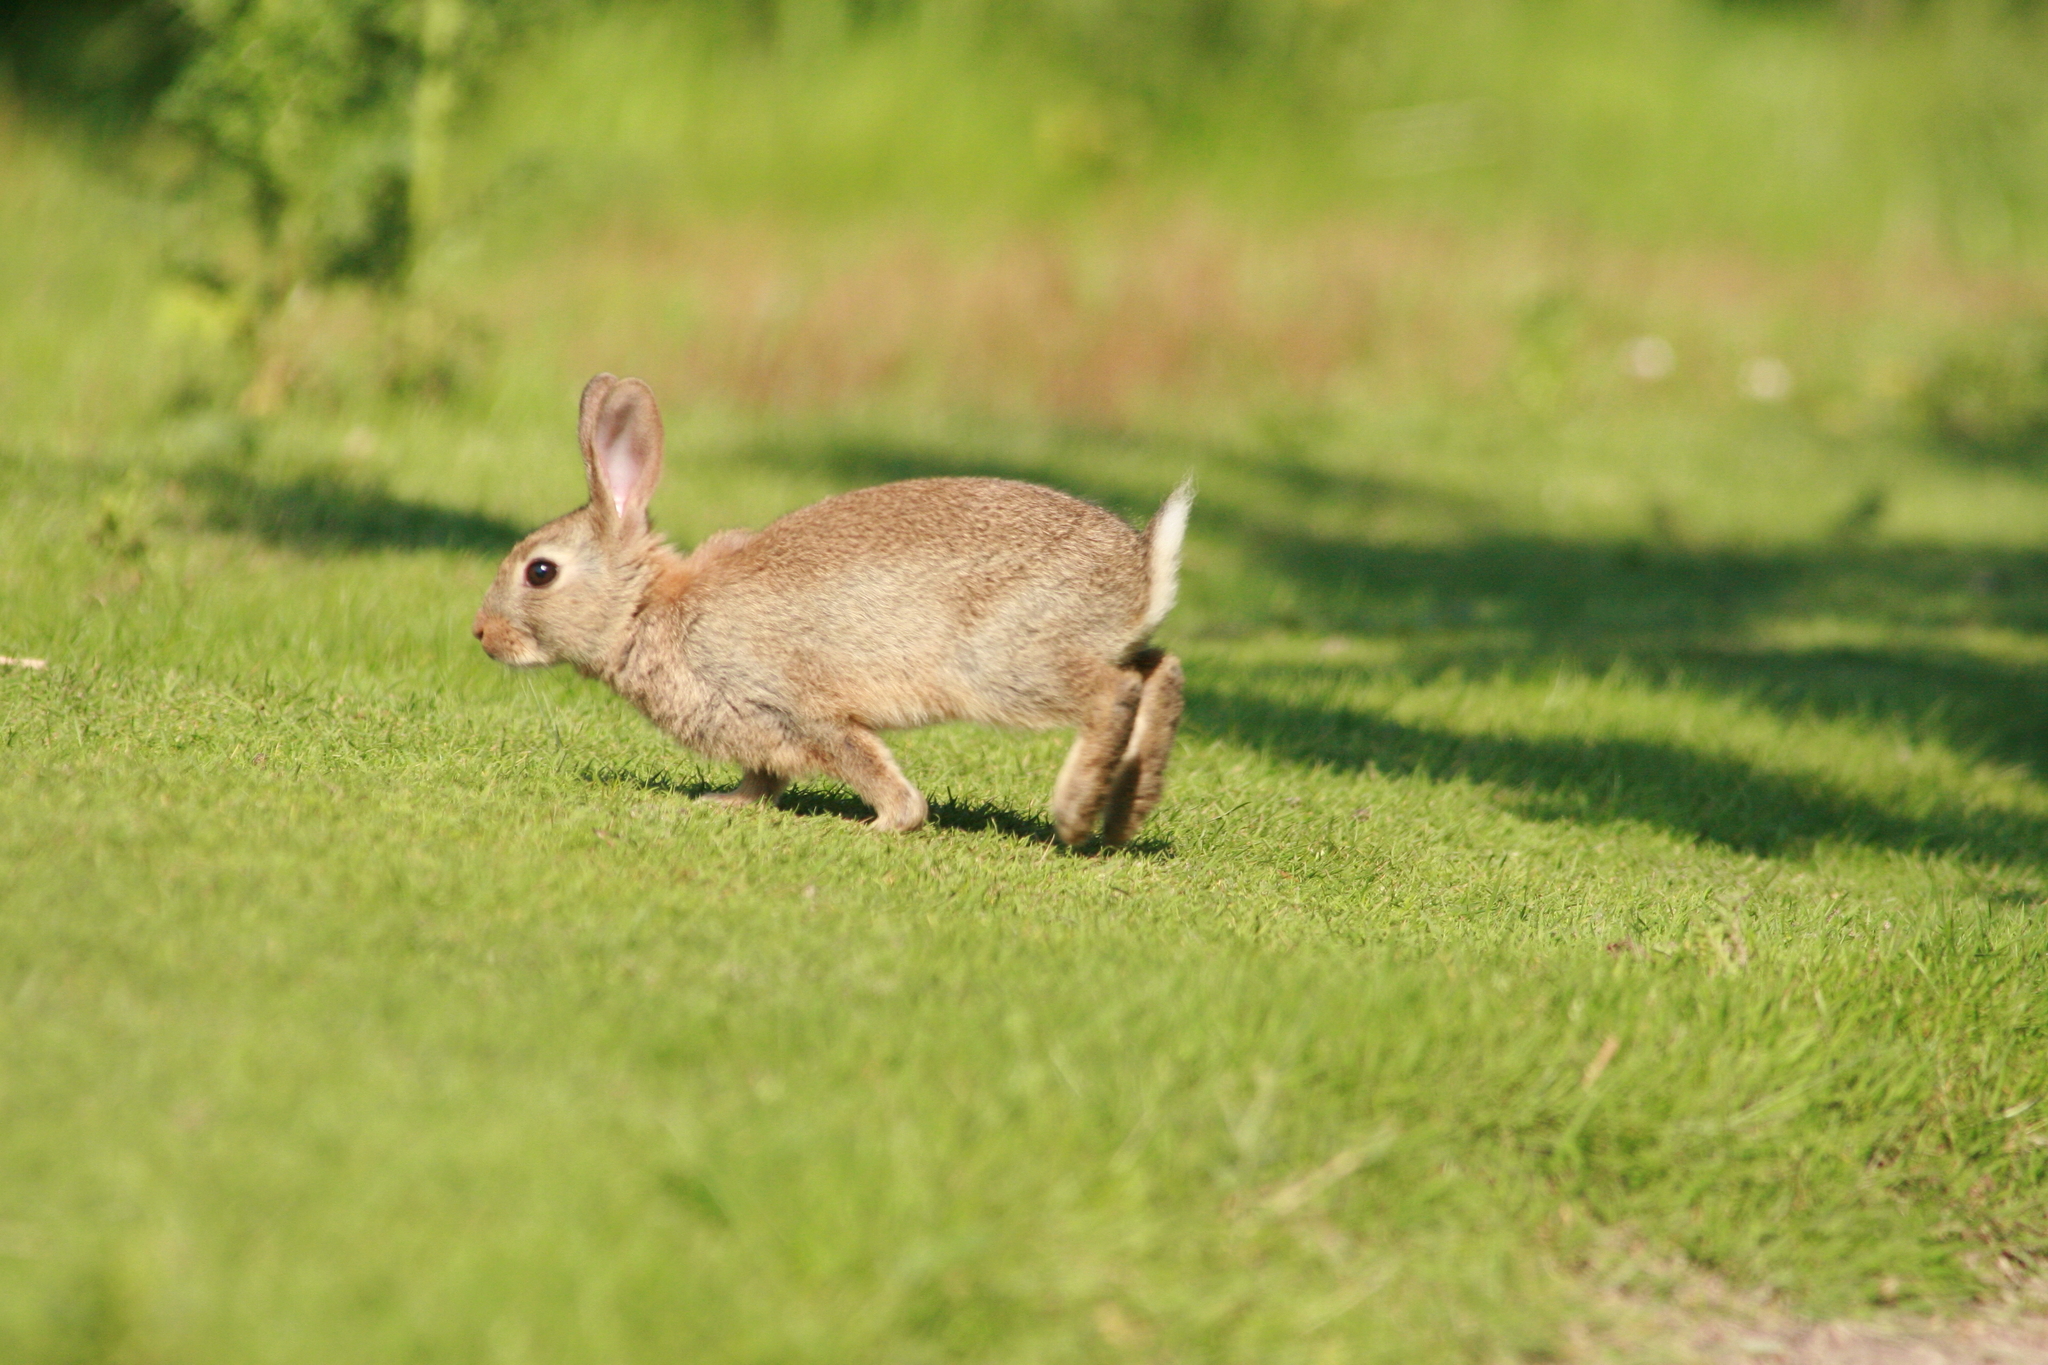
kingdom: Animalia
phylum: Chordata
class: Mammalia
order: Lagomorpha
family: Leporidae
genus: Oryctolagus
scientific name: Oryctolagus cuniculus
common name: European rabbit
